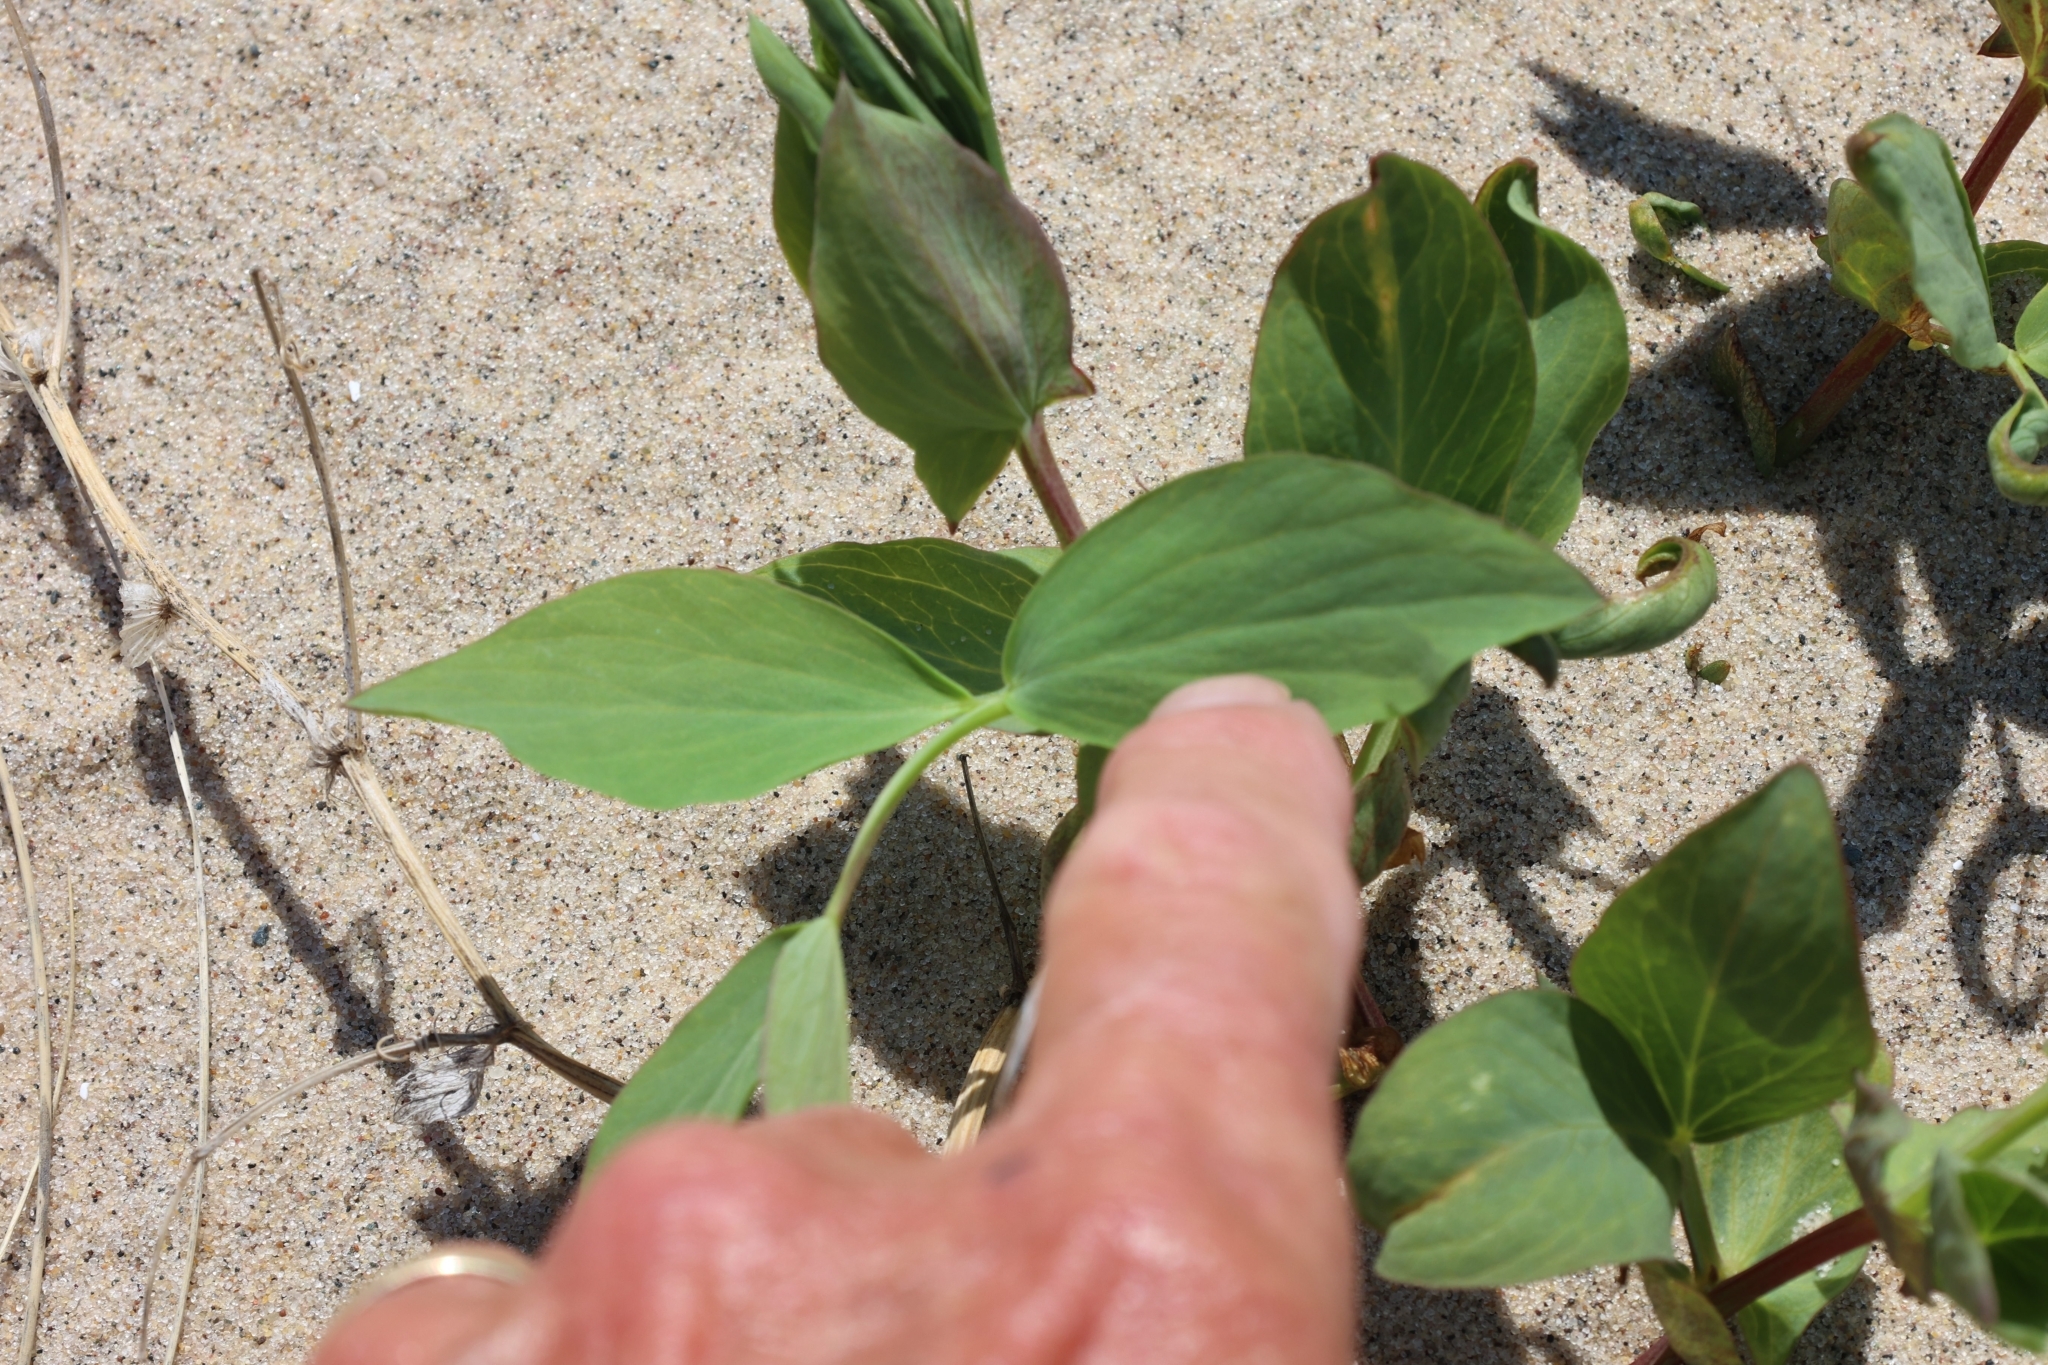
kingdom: Plantae
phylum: Tracheophyta
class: Magnoliopsida
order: Fabales
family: Fabaceae
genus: Lathyrus
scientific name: Lathyrus japonicus
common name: Sea pea
